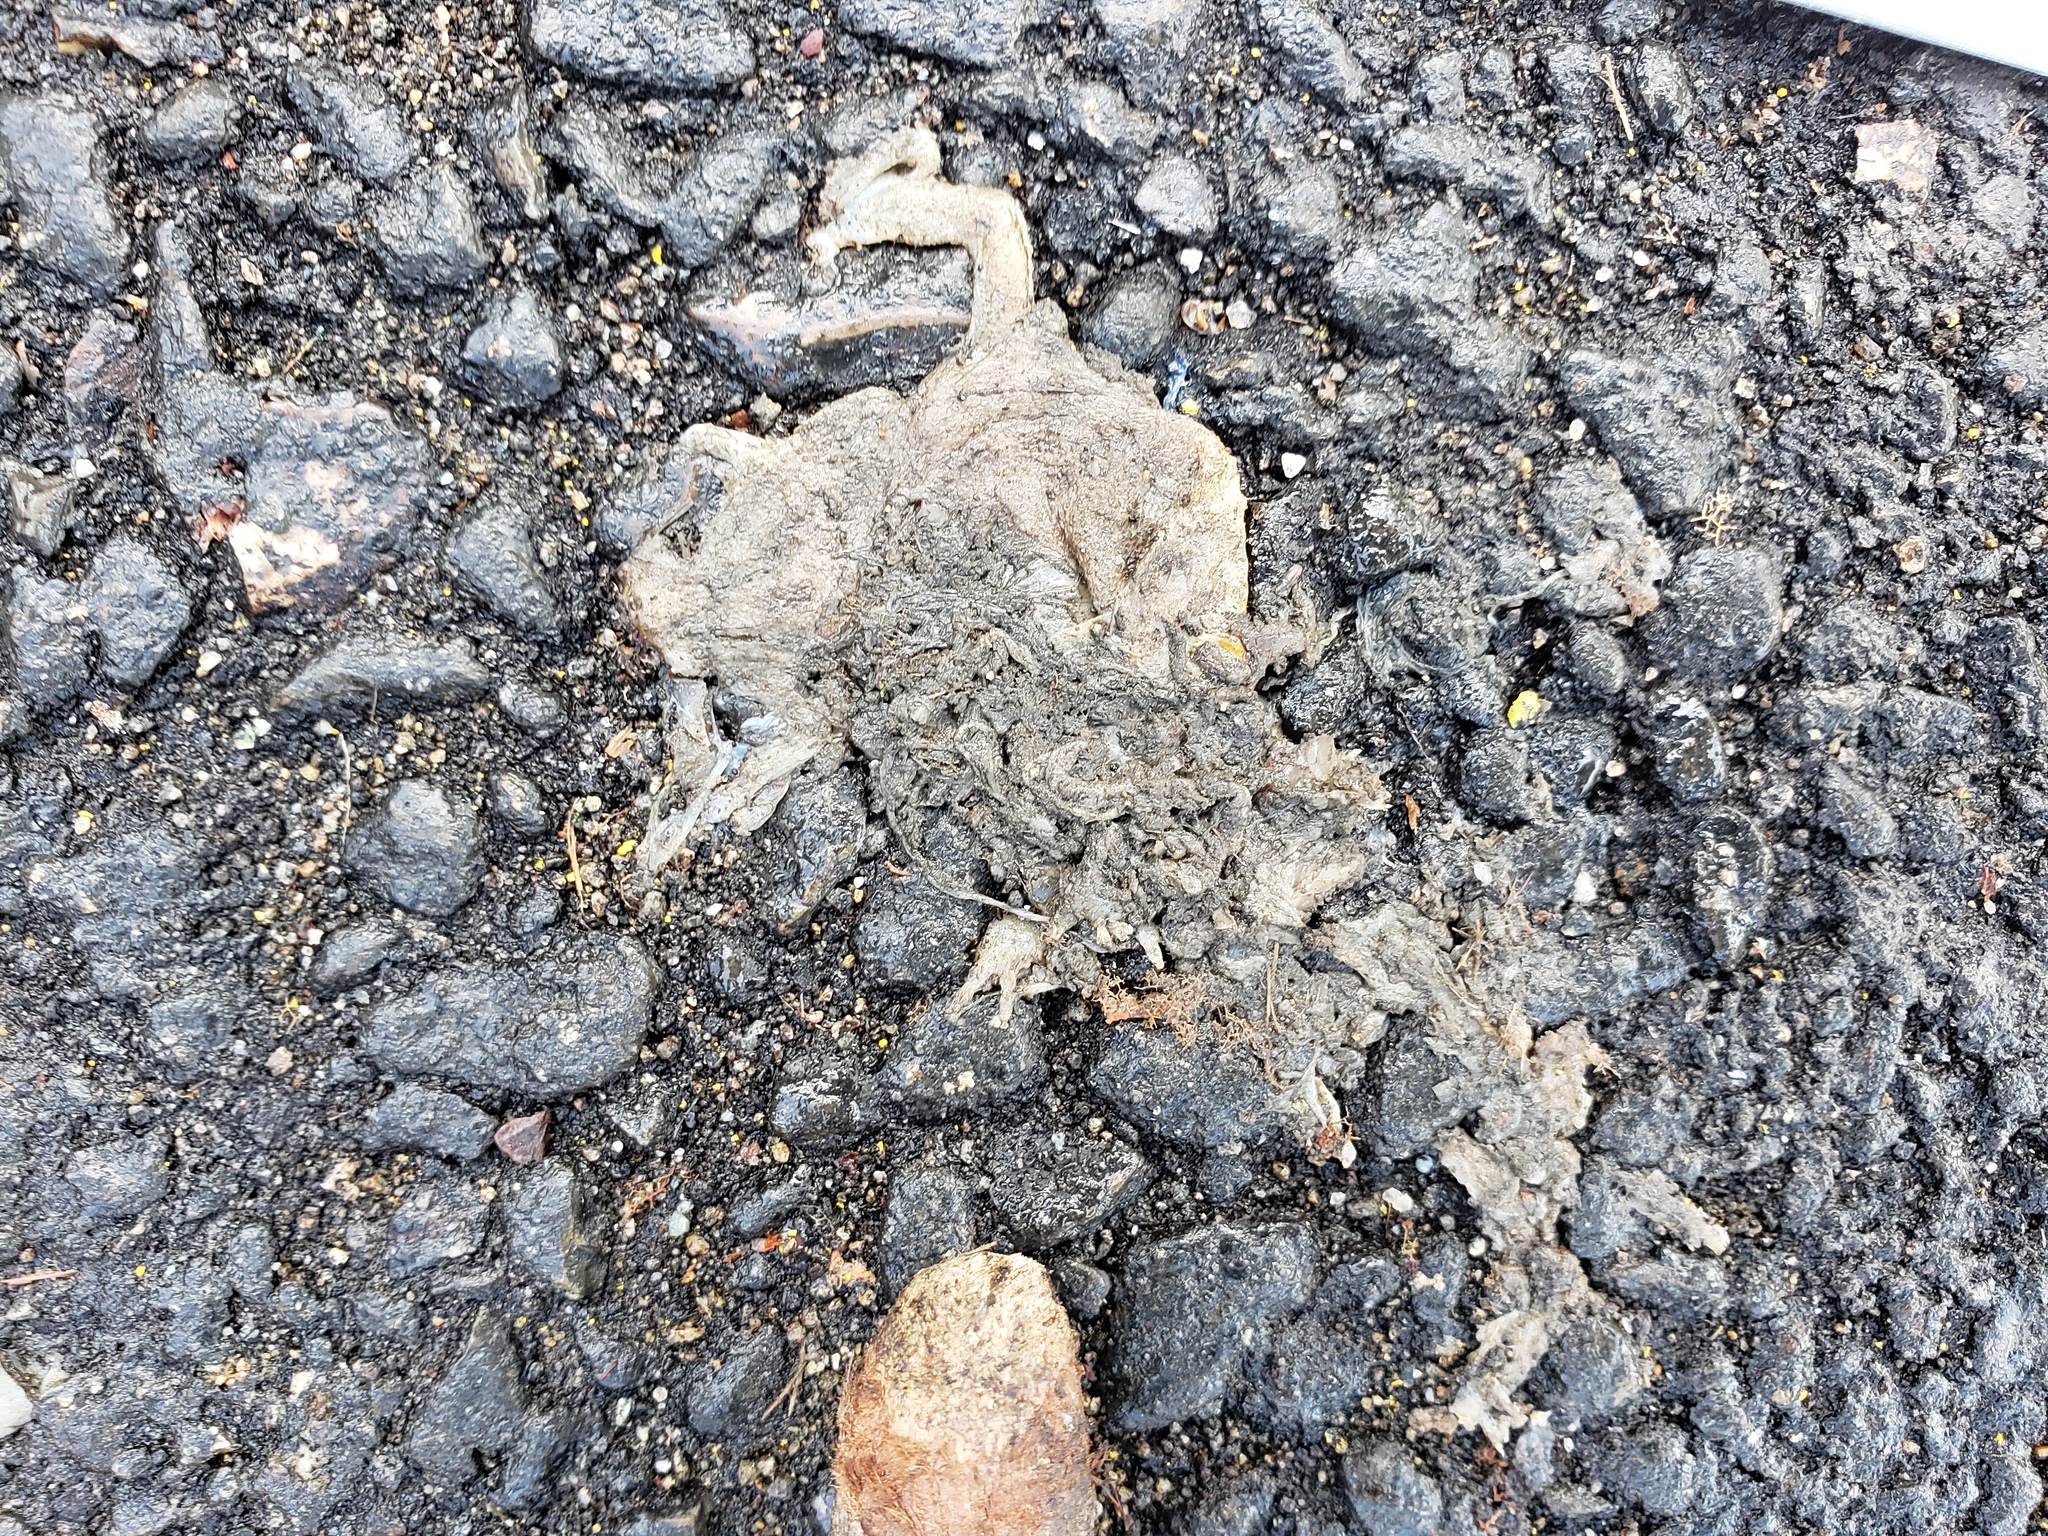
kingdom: Animalia
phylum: Chordata
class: Amphibia
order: Caudata
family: Salamandridae
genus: Taricha
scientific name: Taricha
